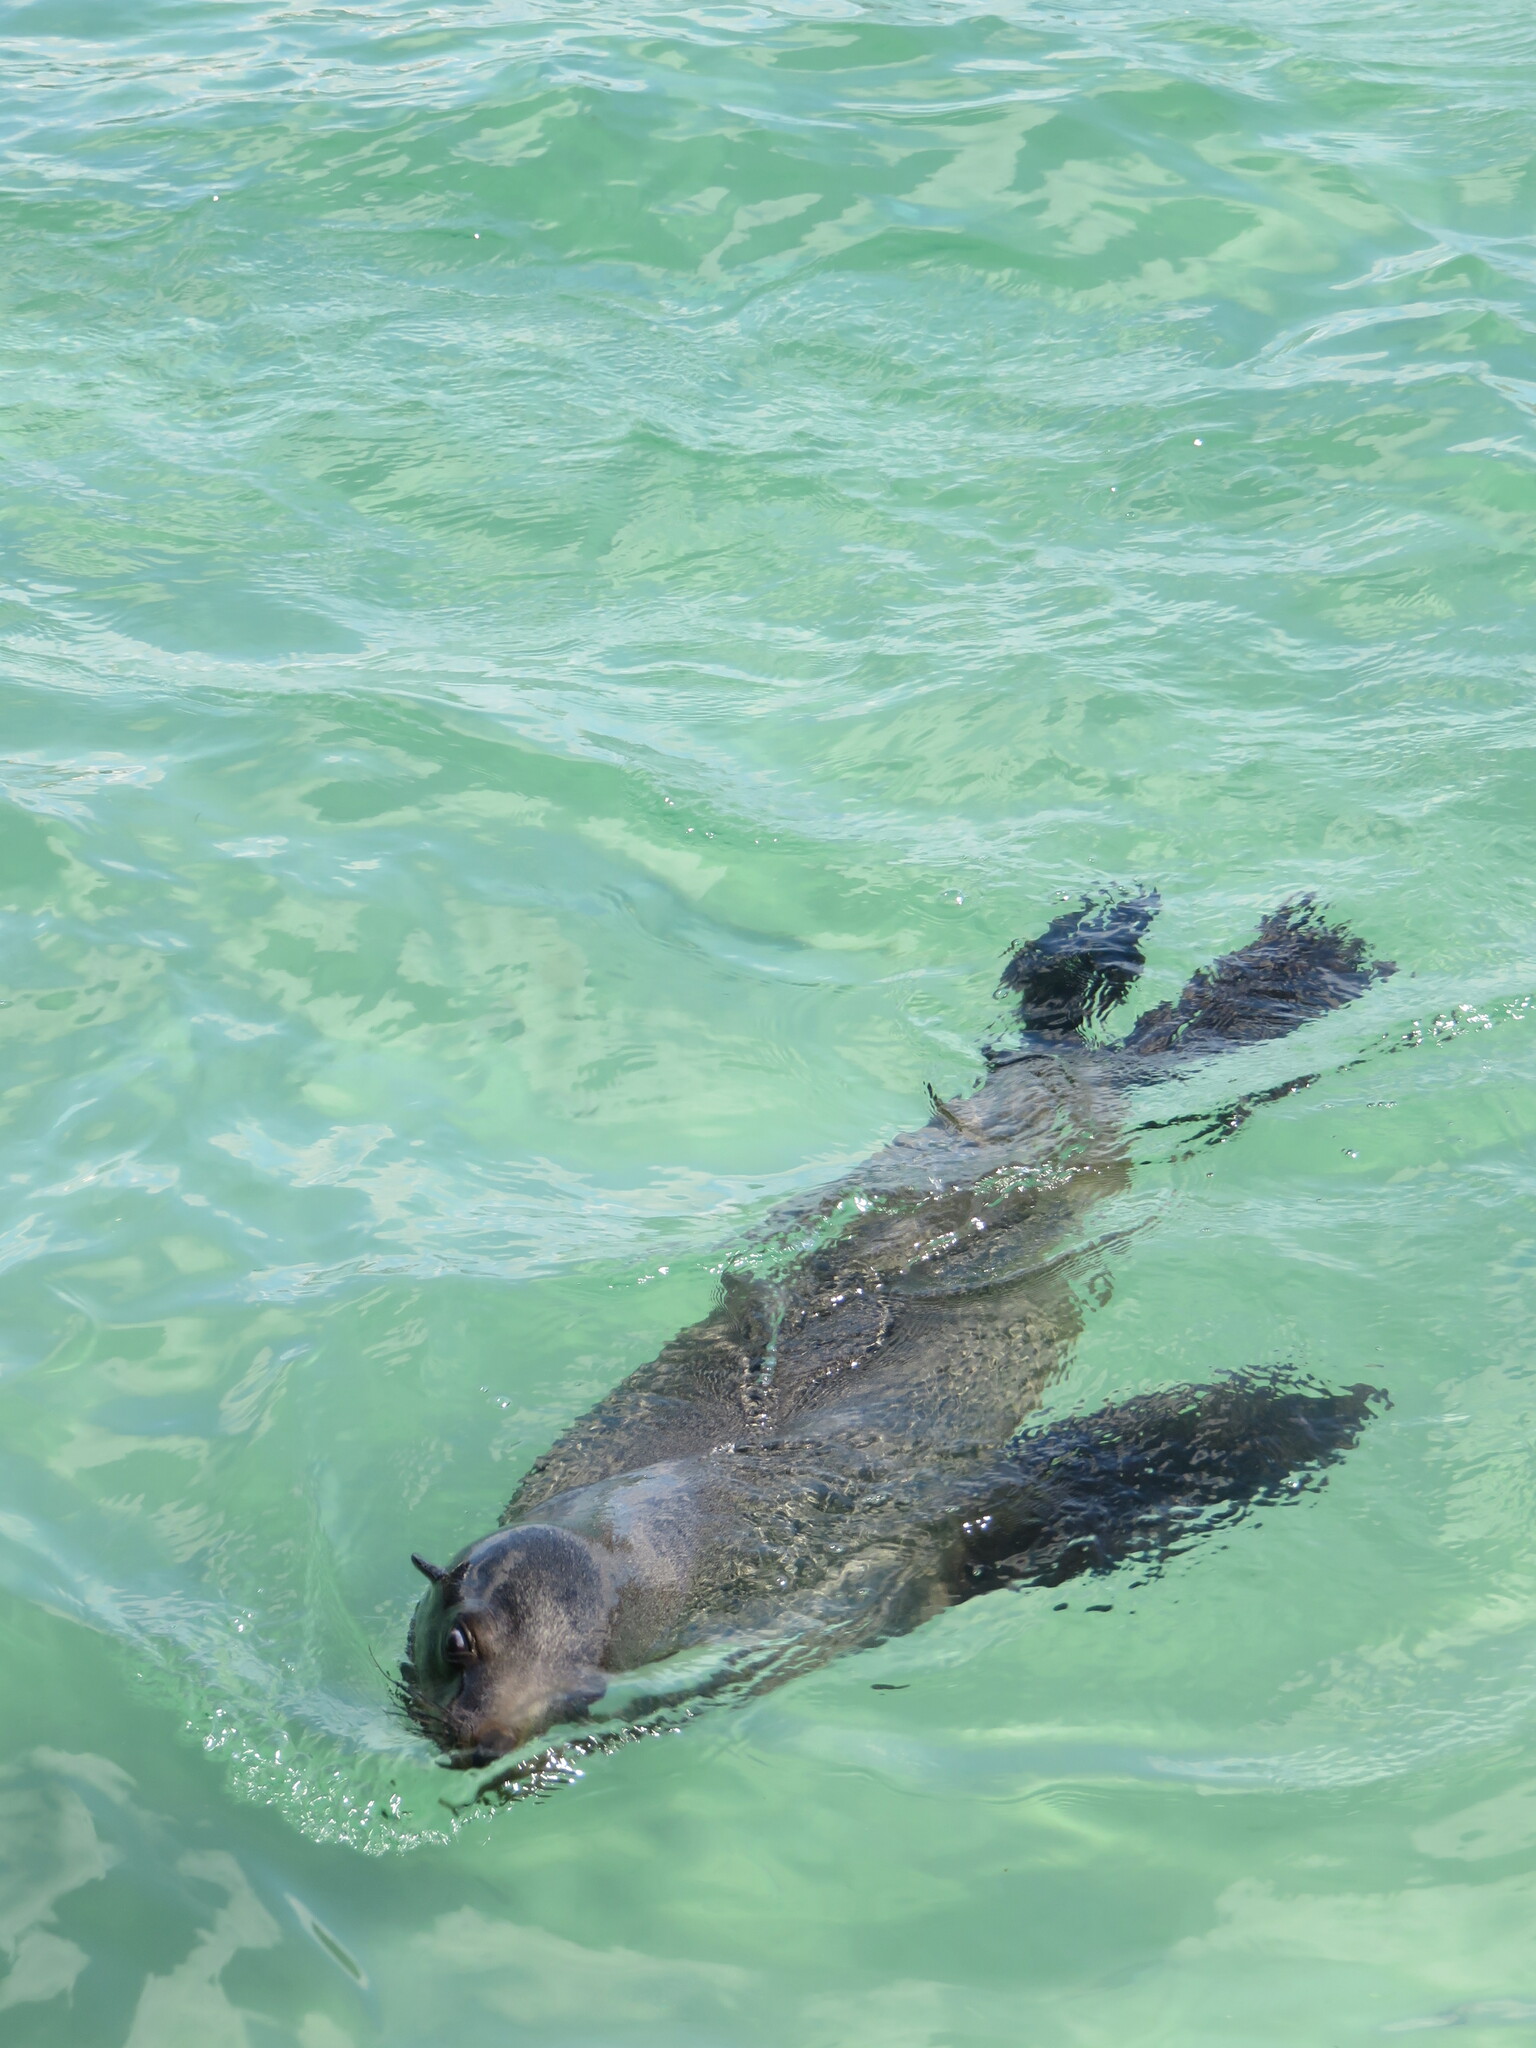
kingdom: Animalia
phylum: Chordata
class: Mammalia
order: Carnivora
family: Otariidae
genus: Arctocephalus
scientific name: Arctocephalus pusillus
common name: Brown fur seal
